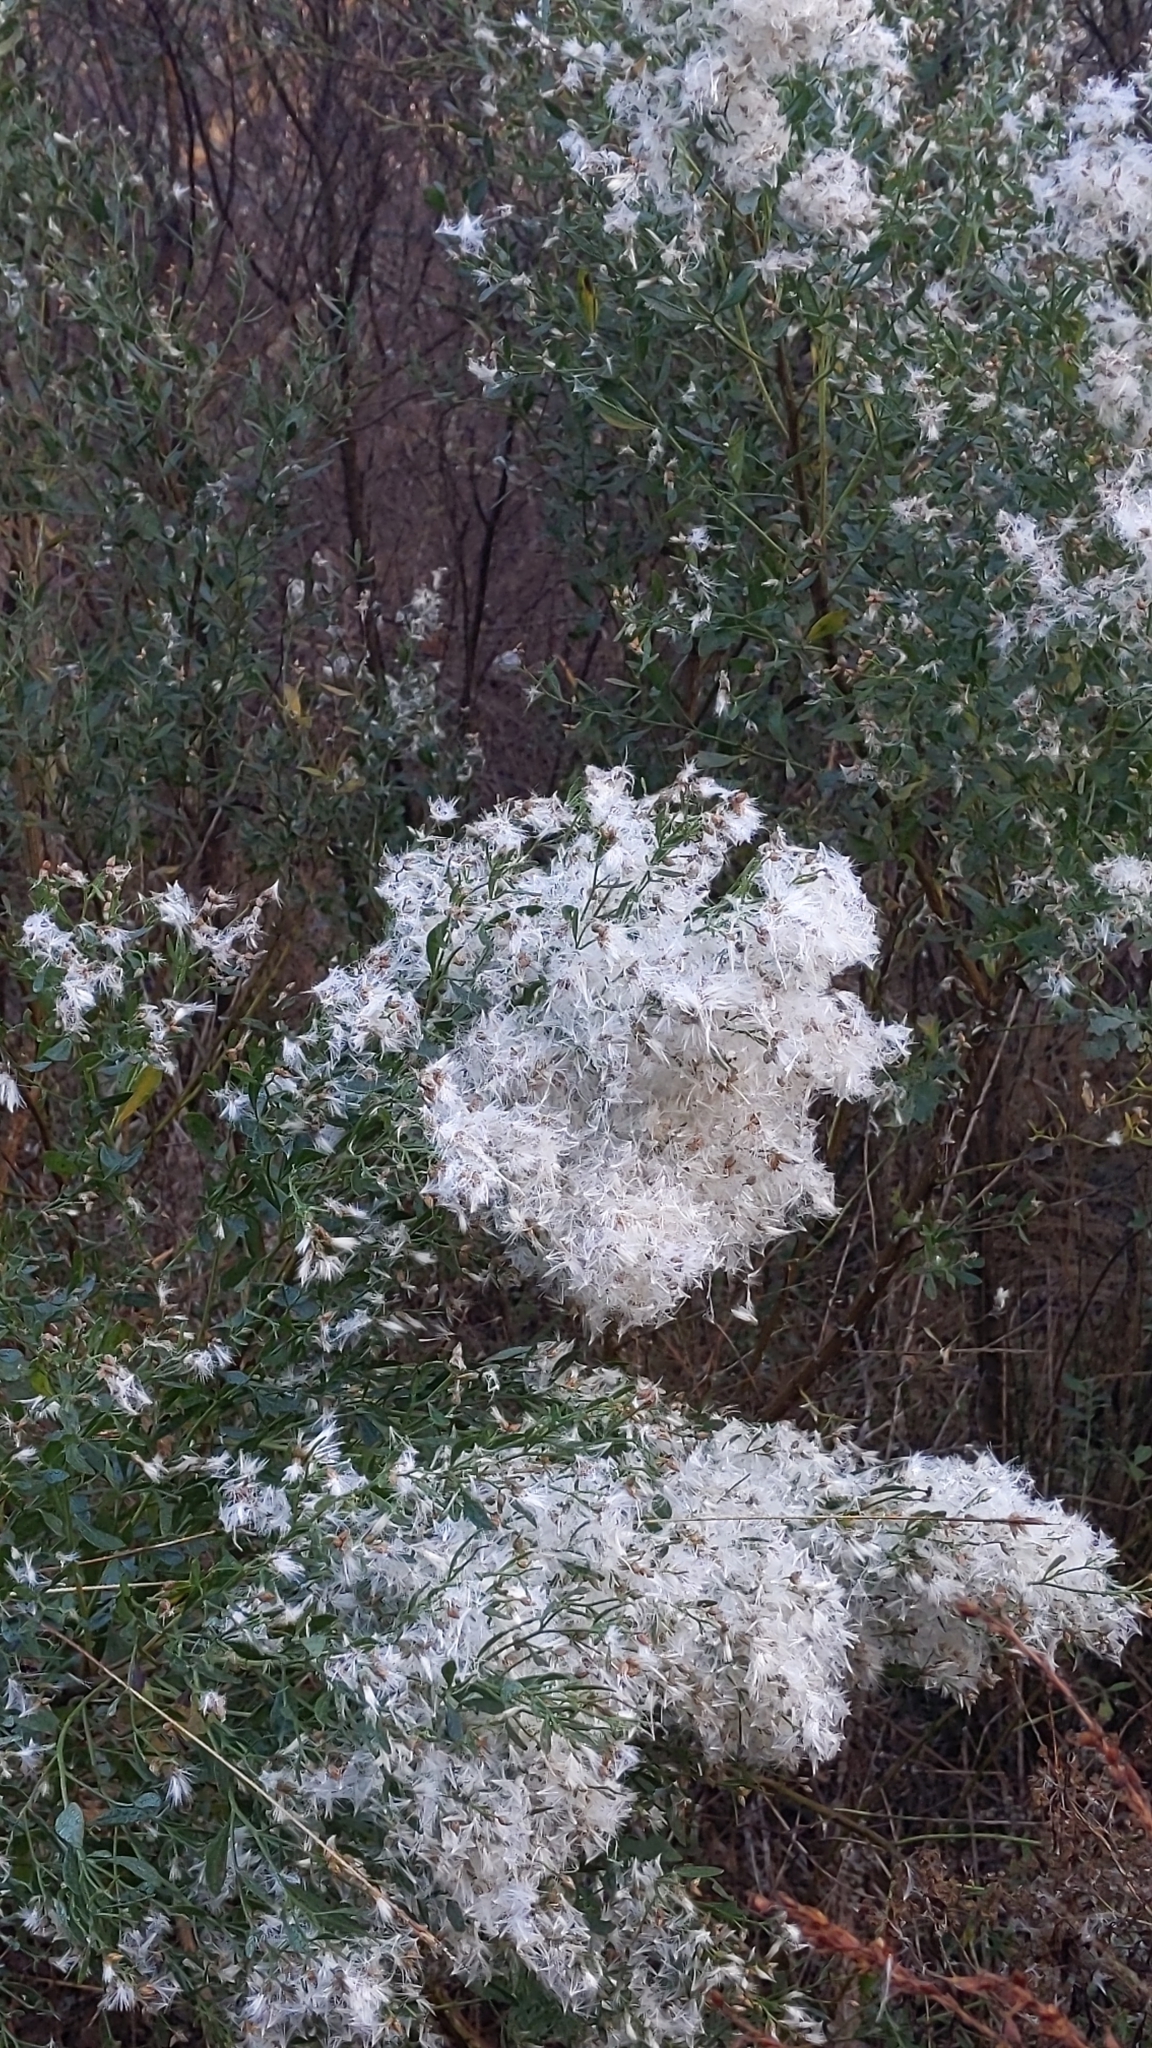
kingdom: Plantae
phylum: Tracheophyta
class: Magnoliopsida
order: Asterales
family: Asteraceae
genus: Baccharis
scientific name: Baccharis halimifolia
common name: Eastern baccharis
